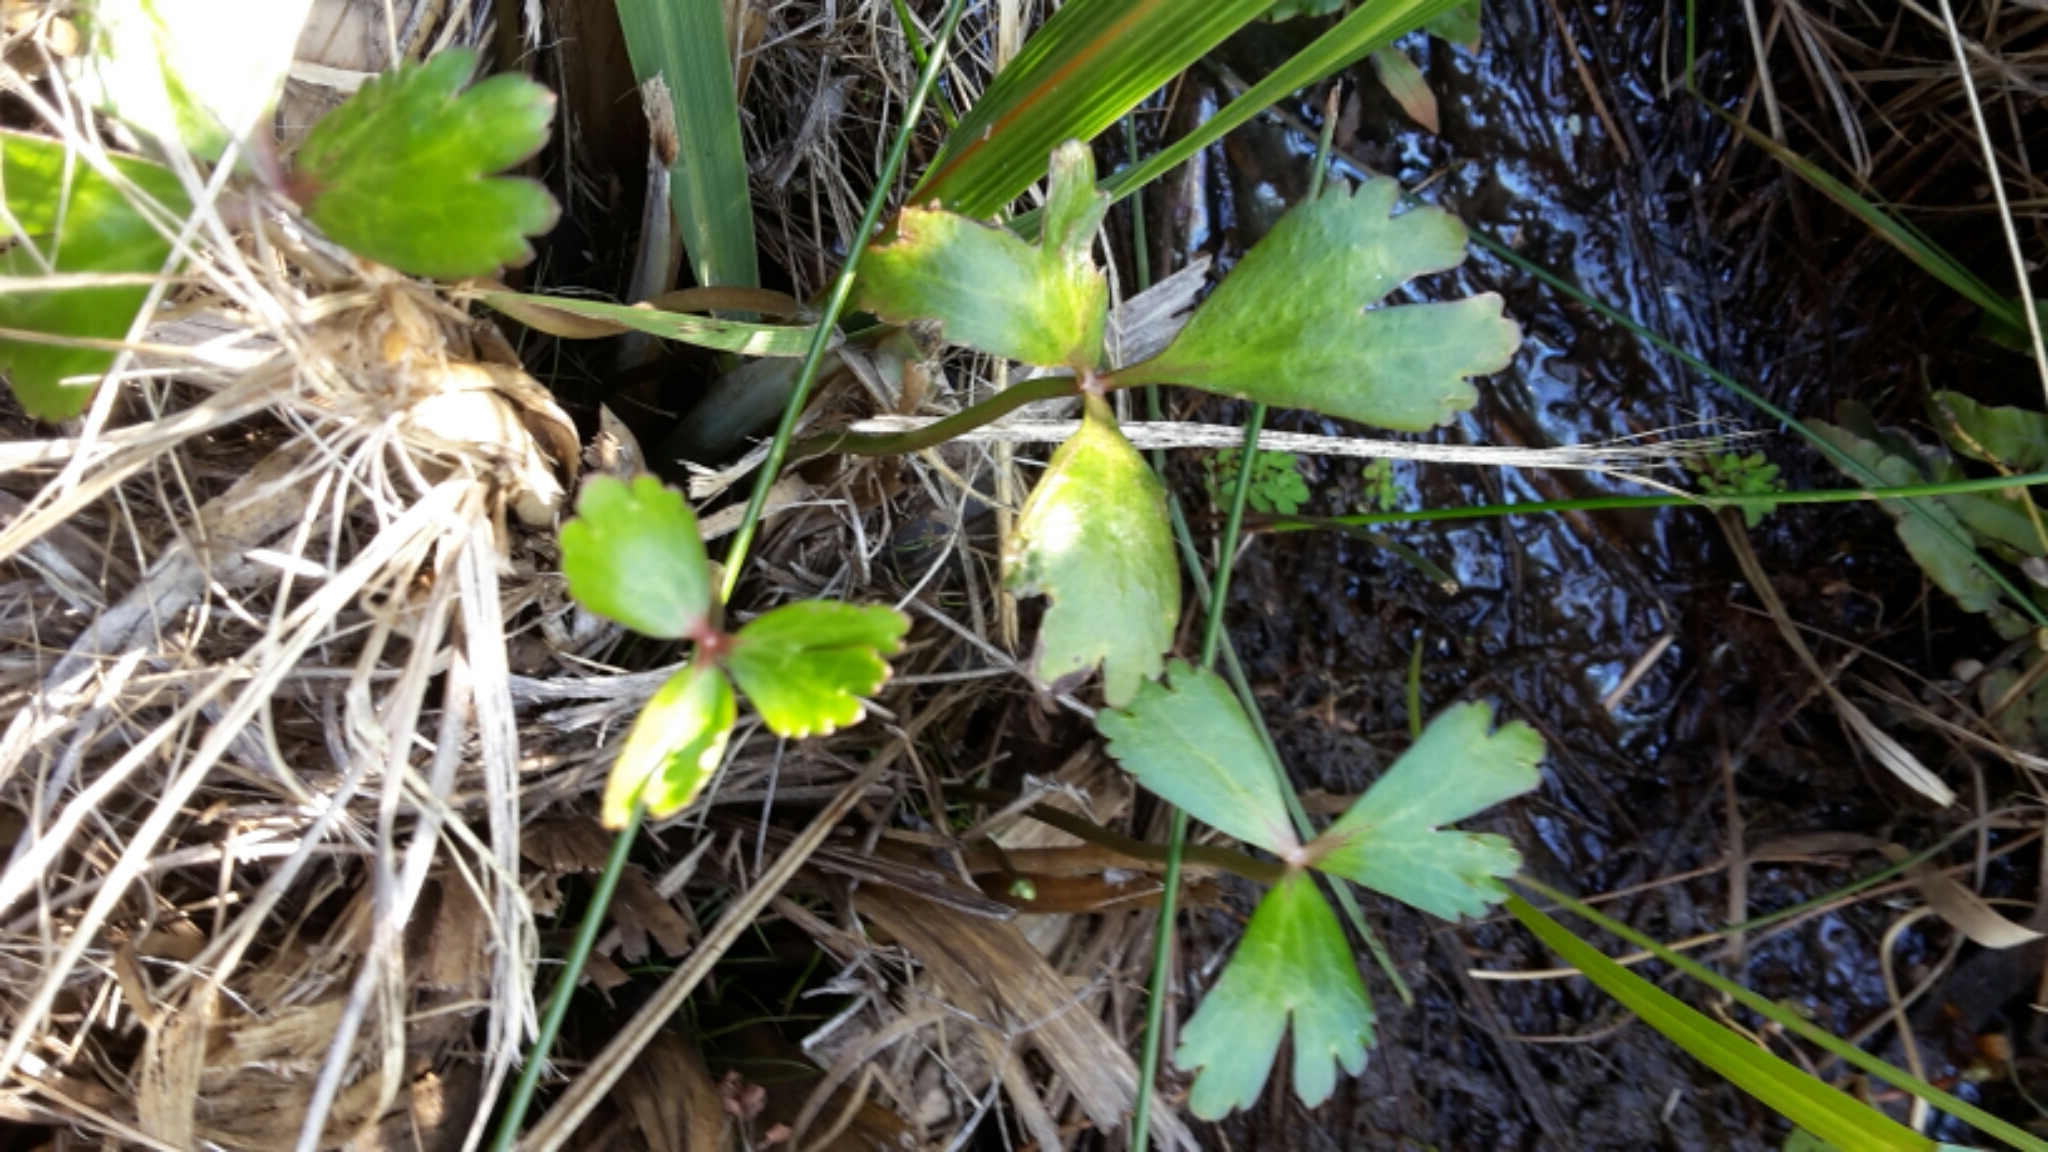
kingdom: Plantae
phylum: Tracheophyta
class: Magnoliopsida
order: Ranunculales
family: Ranunculaceae
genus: Ranunculus
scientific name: Ranunculus macropus
